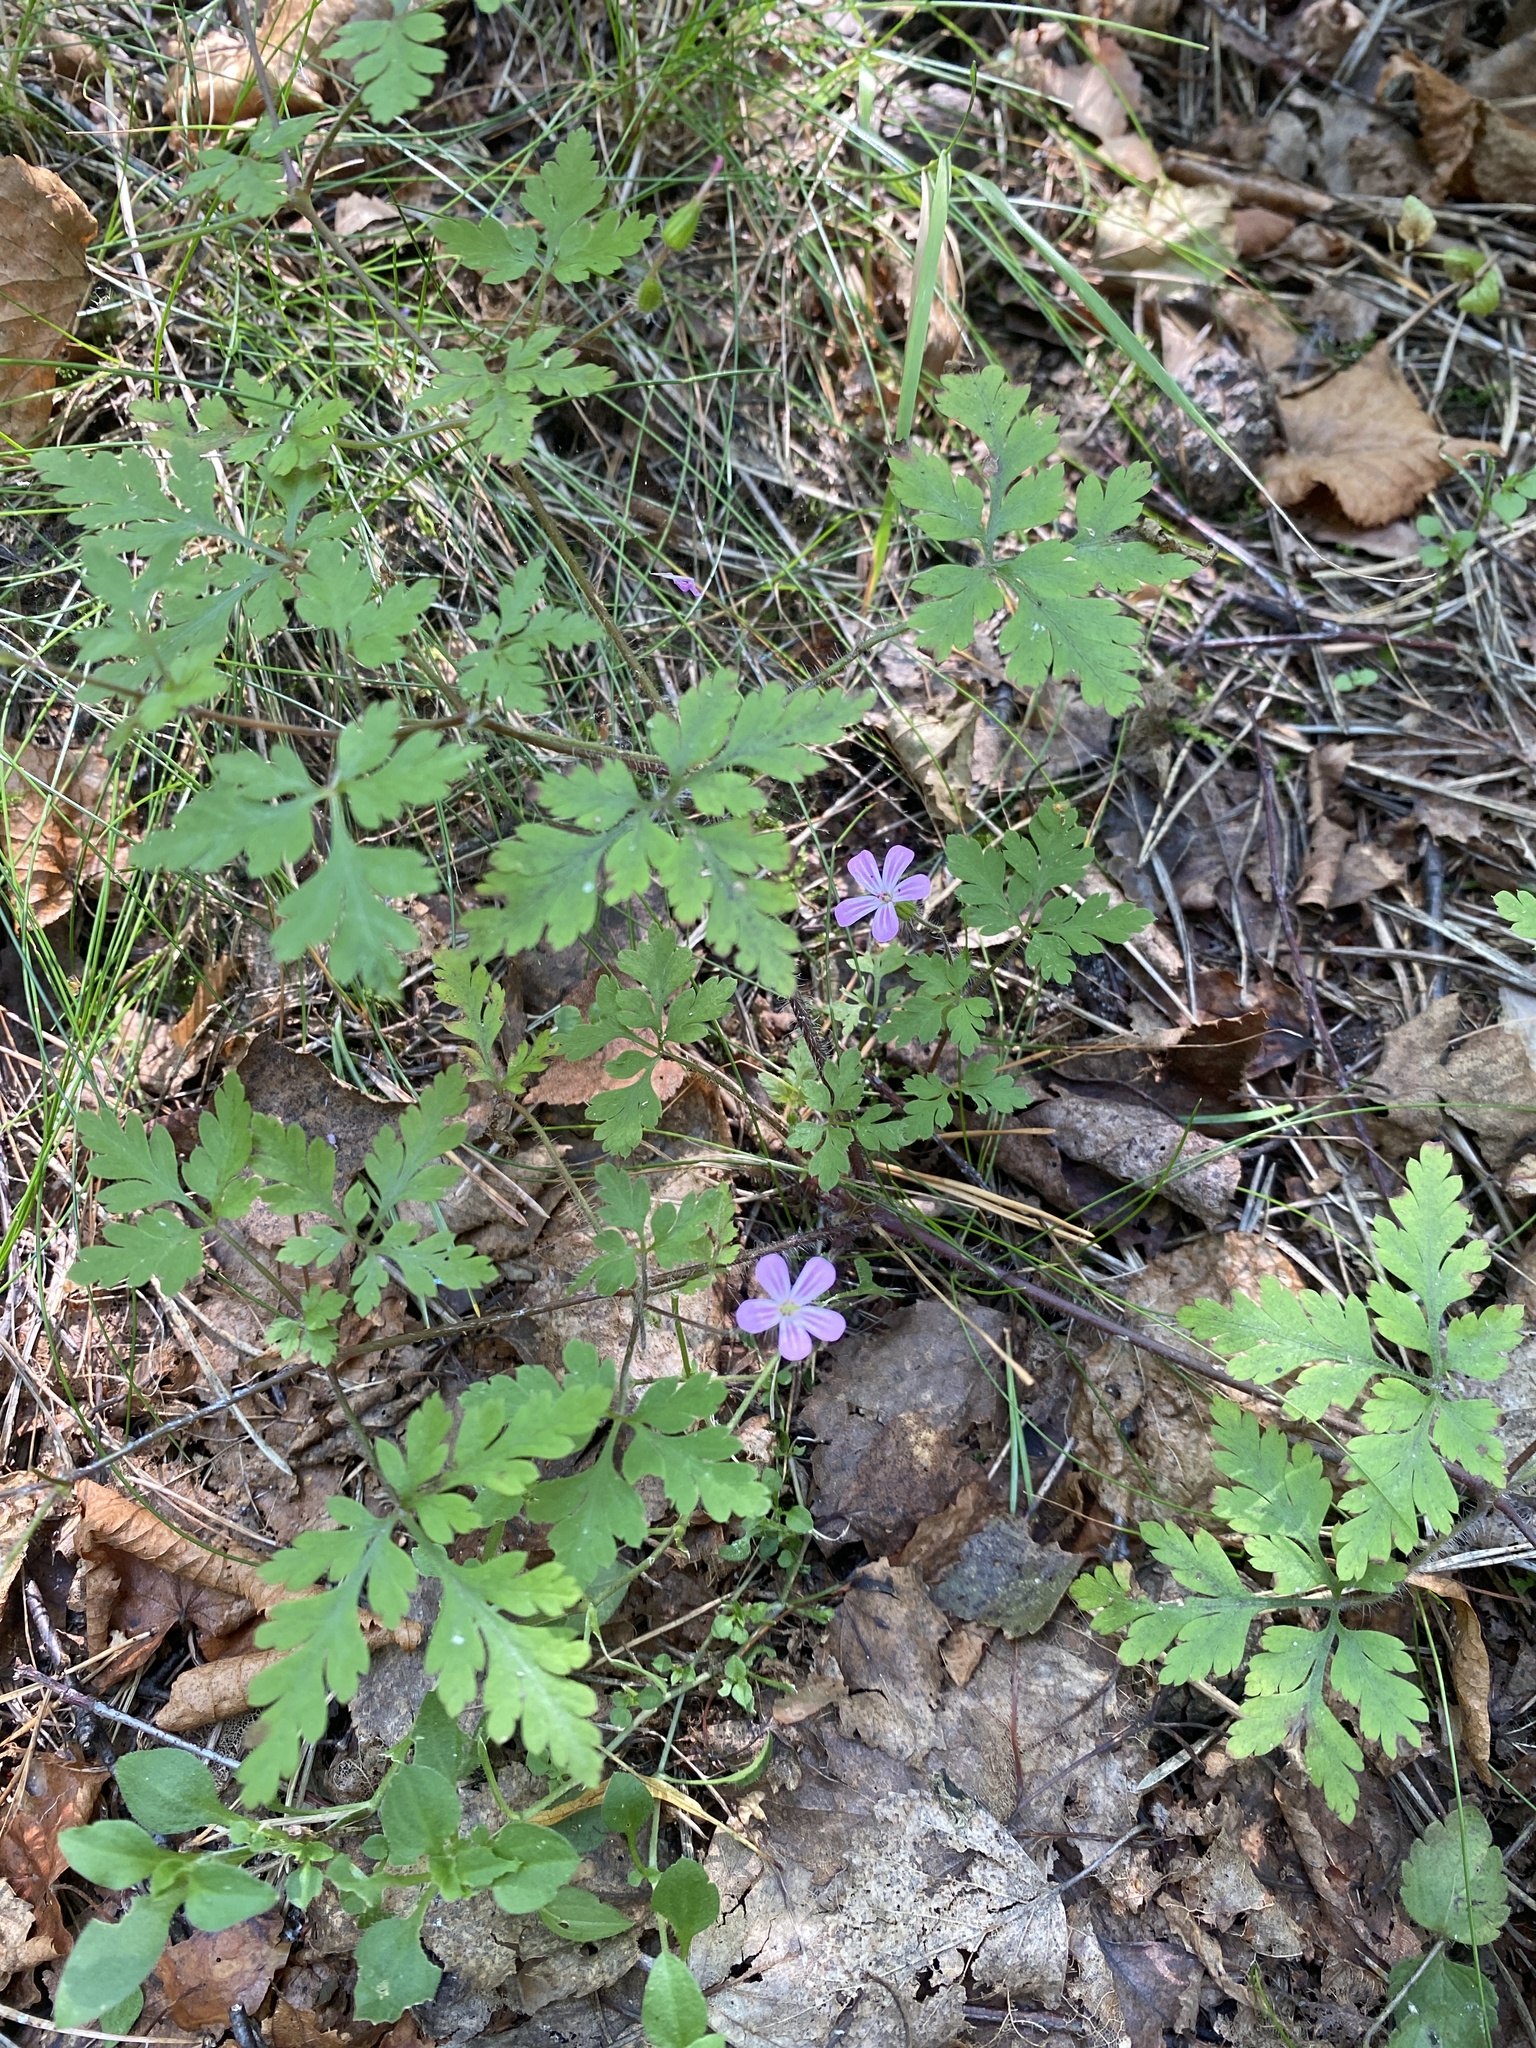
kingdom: Plantae
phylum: Tracheophyta
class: Magnoliopsida
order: Geraniales
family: Geraniaceae
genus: Geranium
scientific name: Geranium robertianum
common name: Herb-robert
